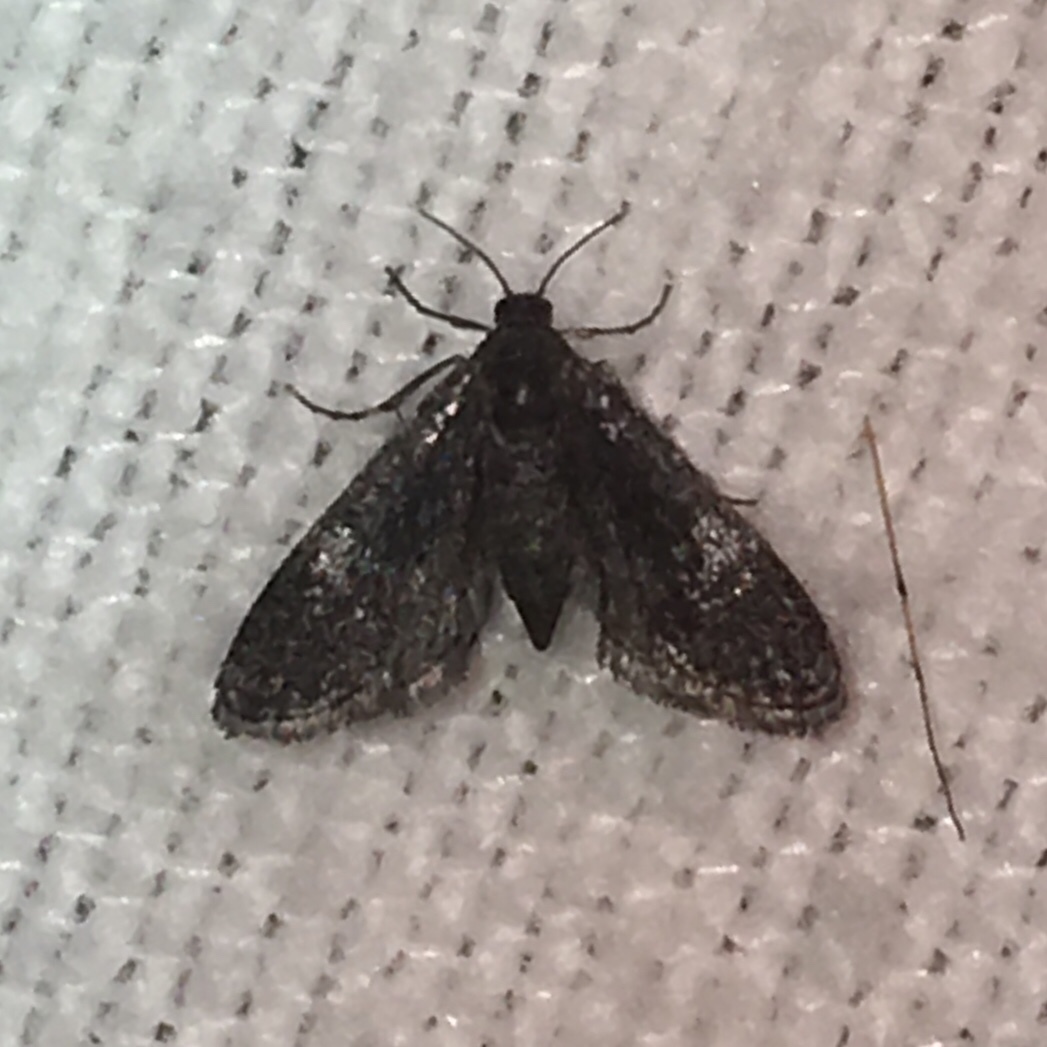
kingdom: Animalia
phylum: Arthropoda
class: Insecta
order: Lepidoptera
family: Crambidae
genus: Elophila
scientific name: Elophila tinealis
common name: Black duckweed moth
